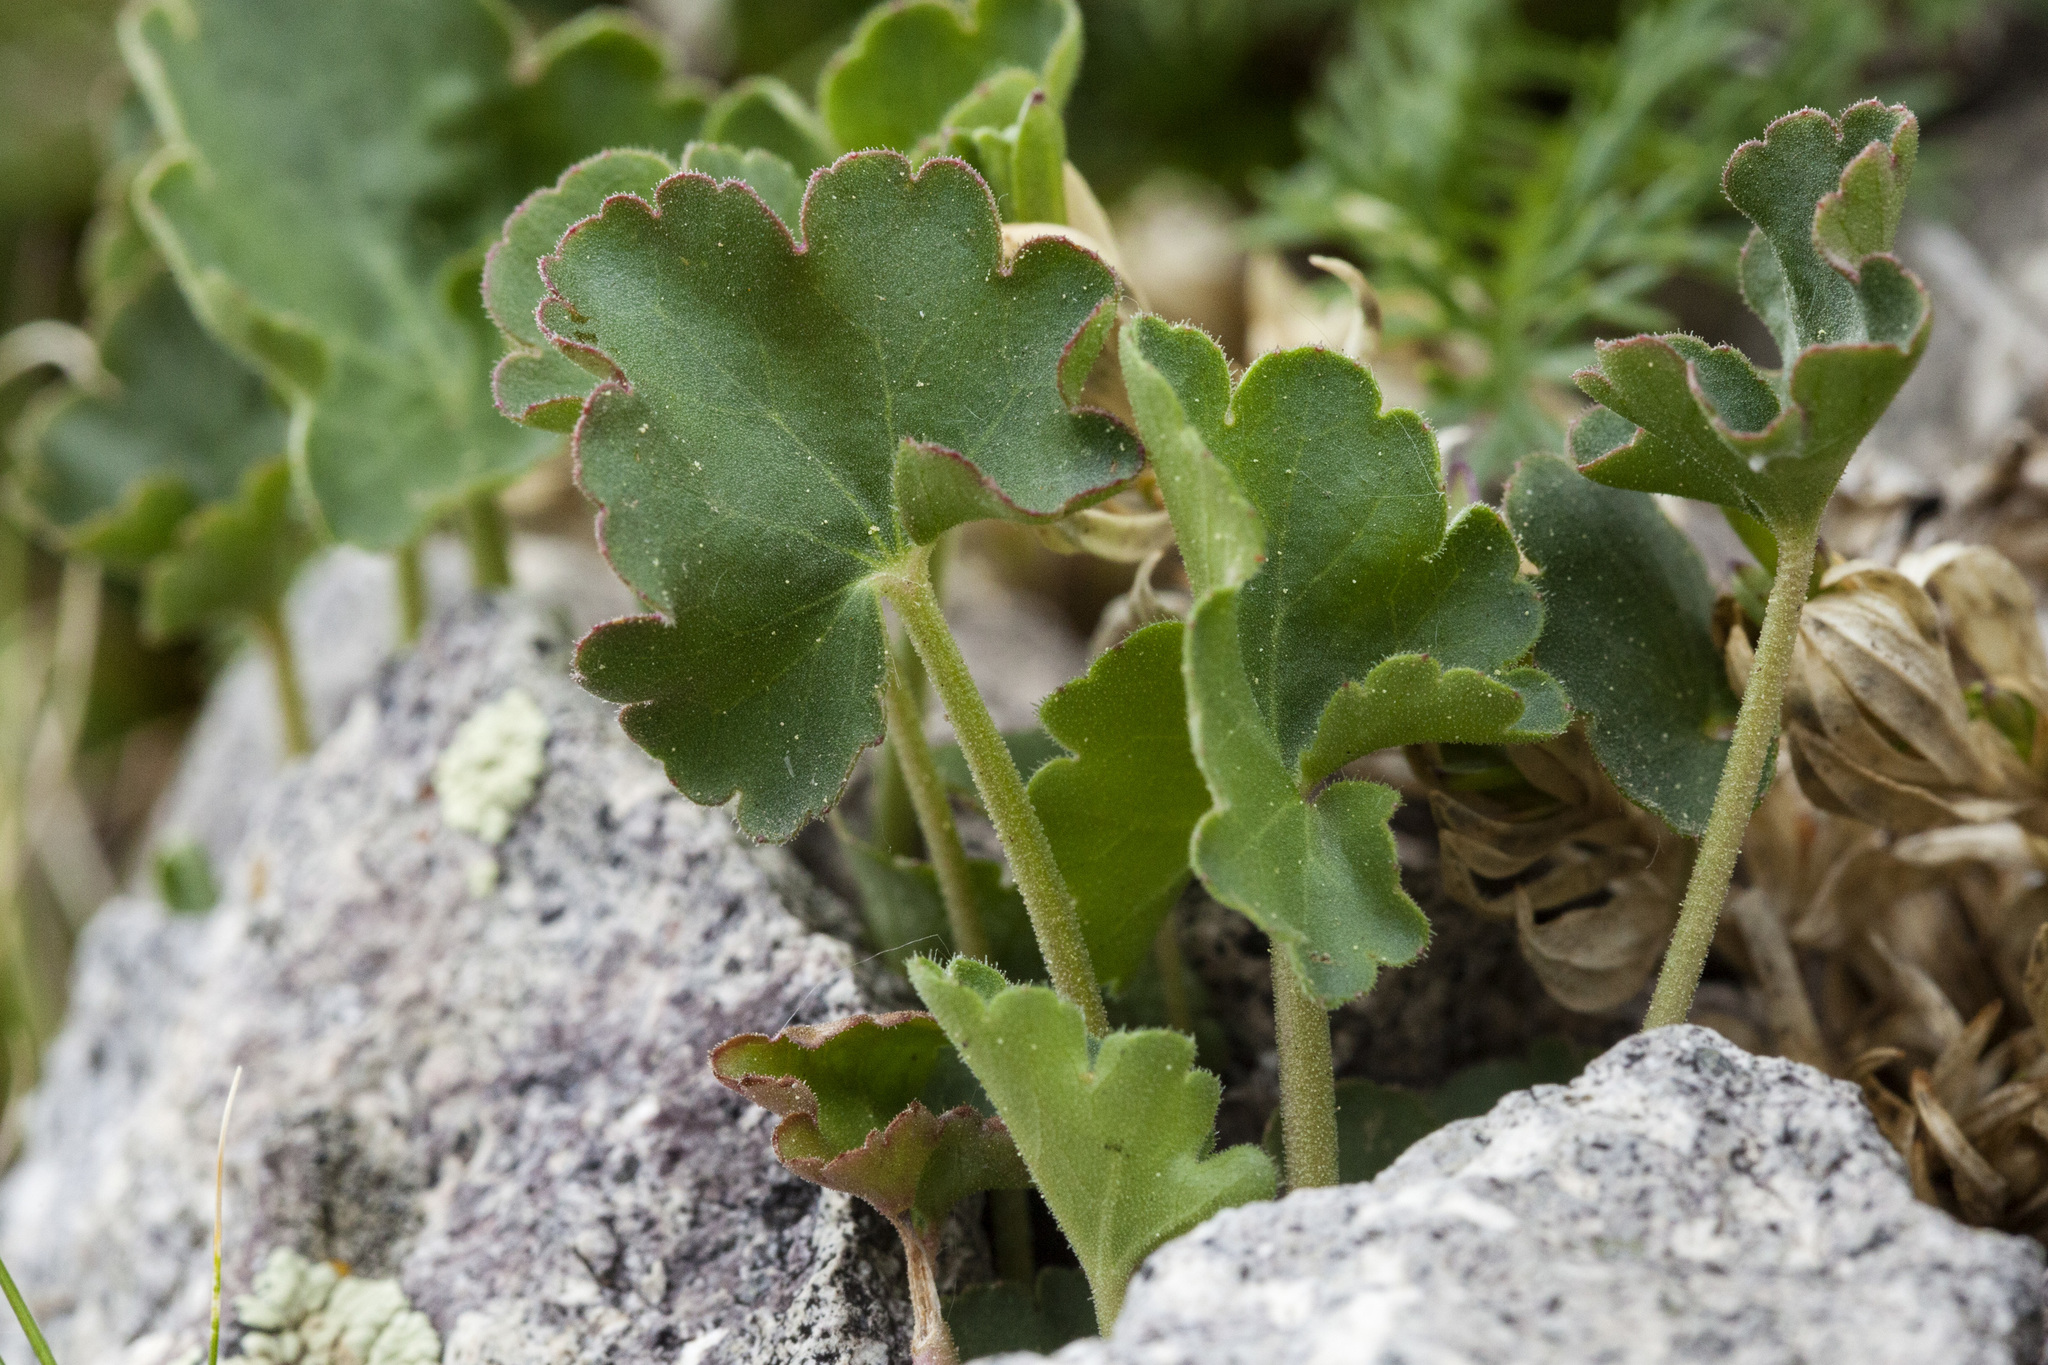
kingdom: Plantae
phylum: Tracheophyta
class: Magnoliopsida
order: Saxifragales
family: Saxifragaceae
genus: Heuchera
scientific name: Heuchera parvifolia
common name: Common alumroot
